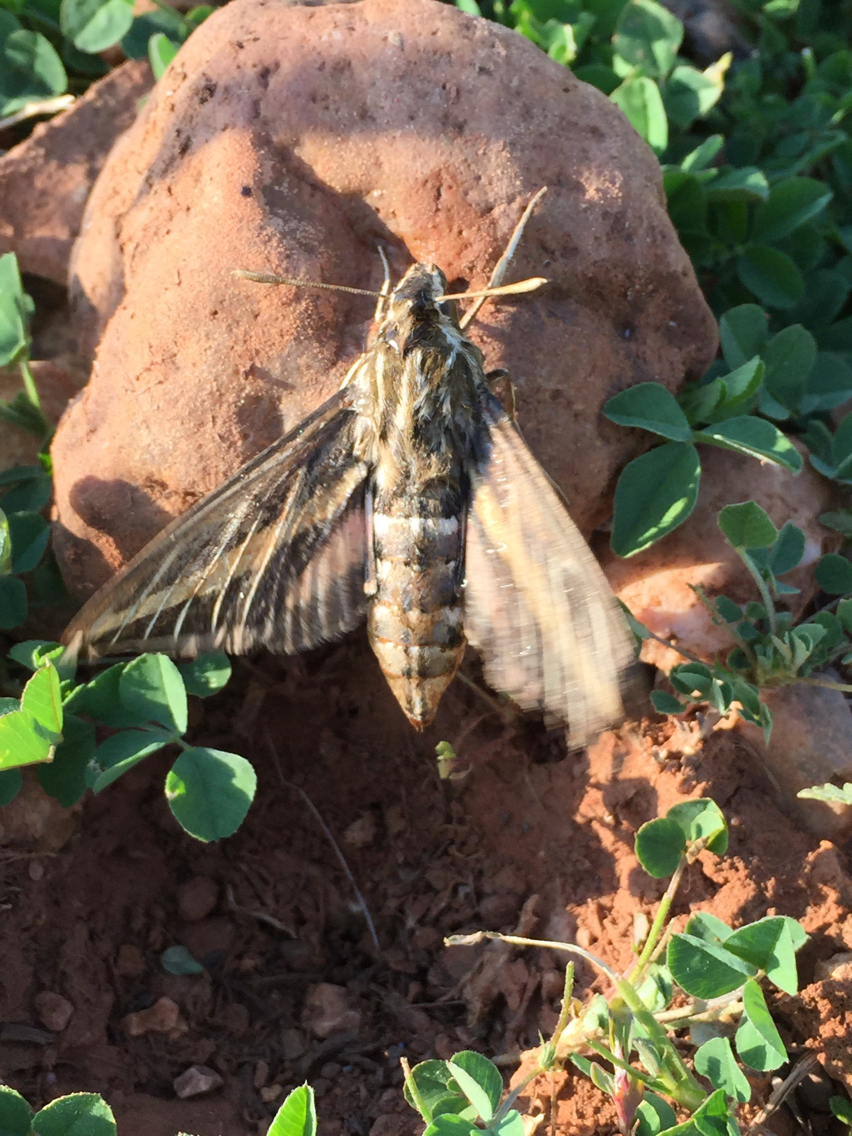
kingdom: Animalia
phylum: Arthropoda
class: Insecta
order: Lepidoptera
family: Sphingidae
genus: Hyles
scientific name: Hyles lineata
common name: White-lined sphinx
